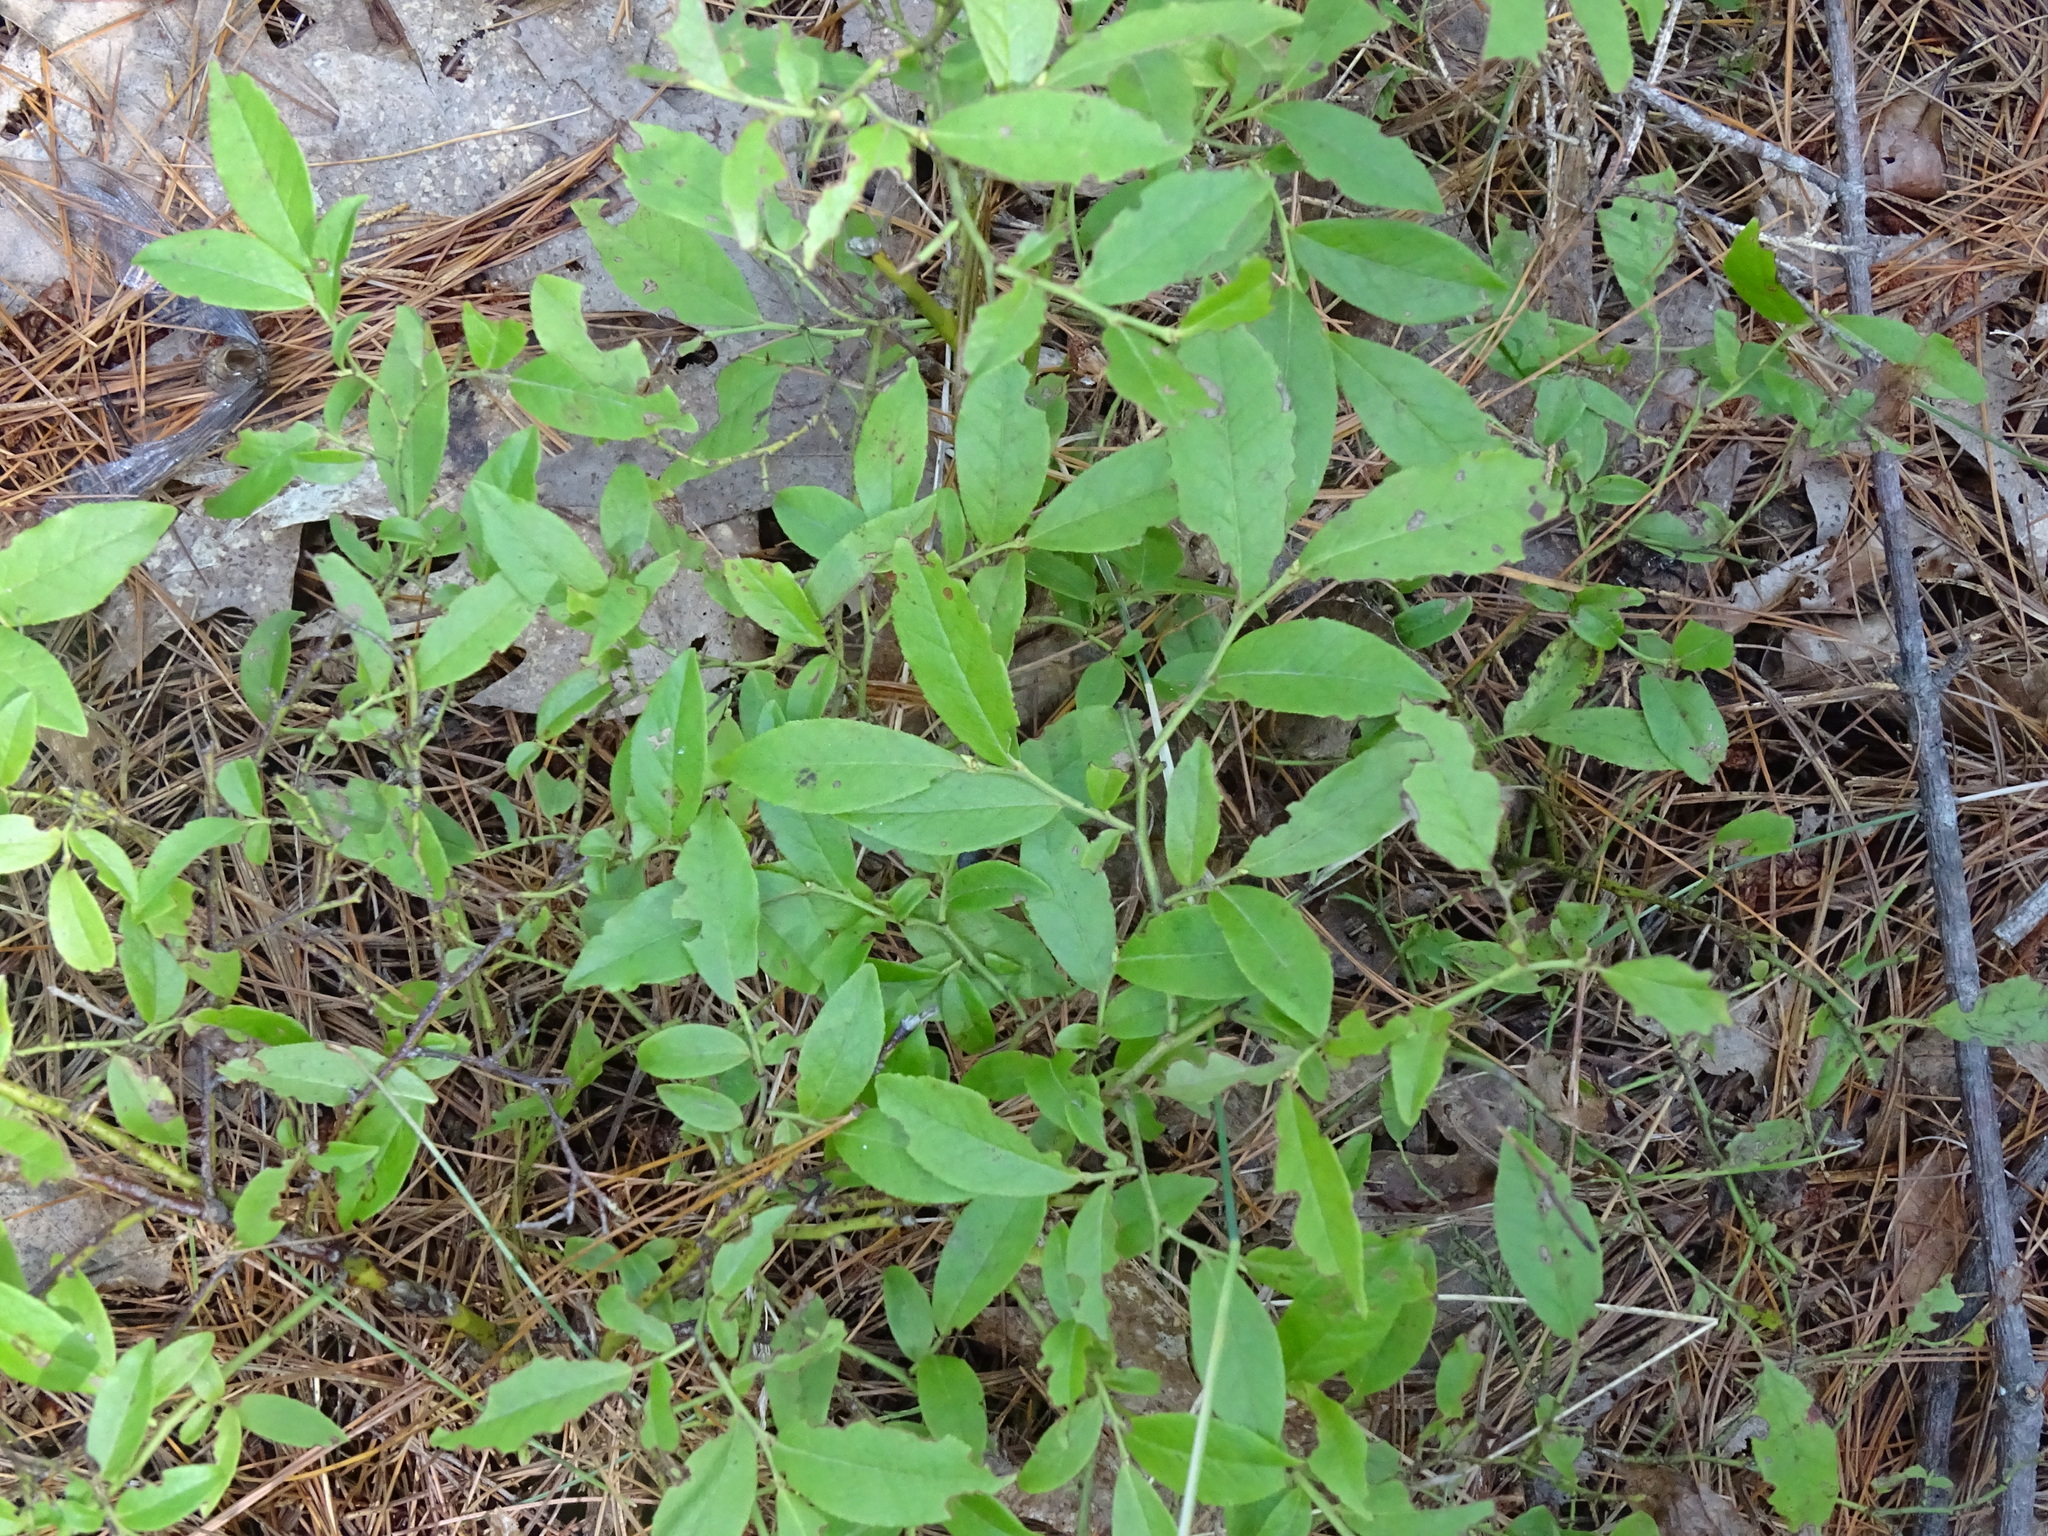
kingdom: Plantae
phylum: Tracheophyta
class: Magnoliopsida
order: Ericales
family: Ericaceae
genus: Vaccinium
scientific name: Vaccinium angustifolium
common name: Early lowbush blueberry
